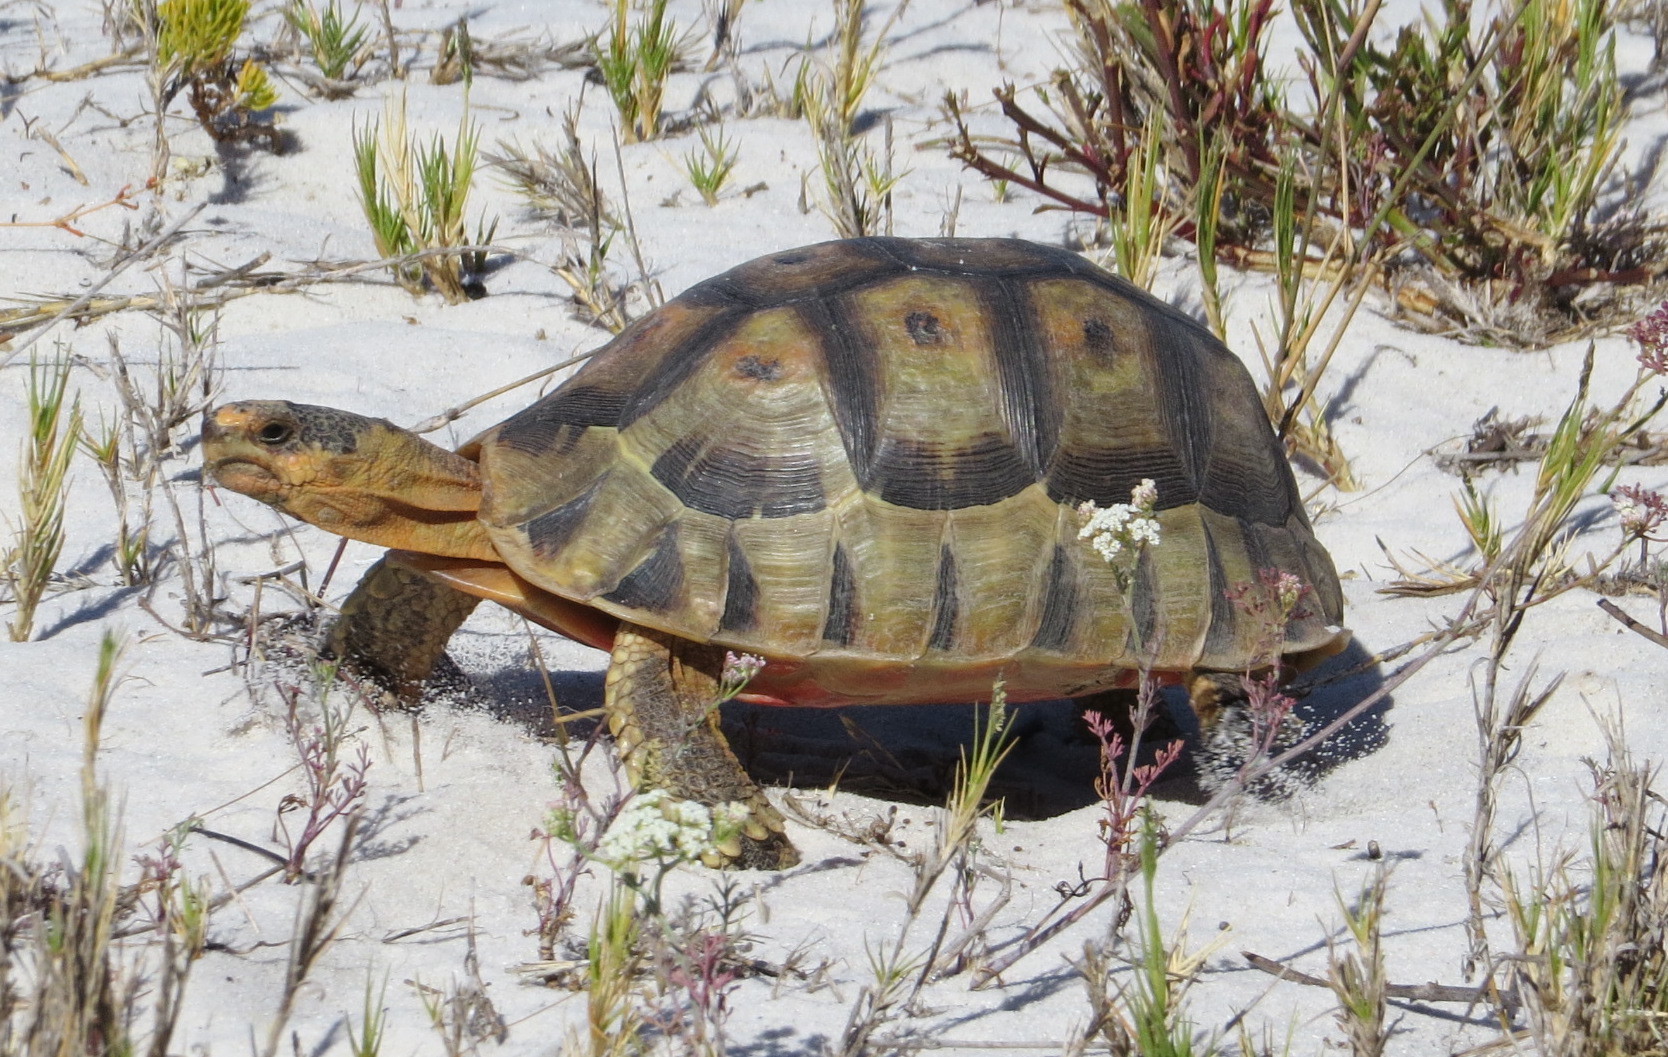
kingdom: Animalia
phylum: Chordata
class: Testudines
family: Testudinidae
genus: Chersina
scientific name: Chersina angulata
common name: South african bowsprit tortoise
